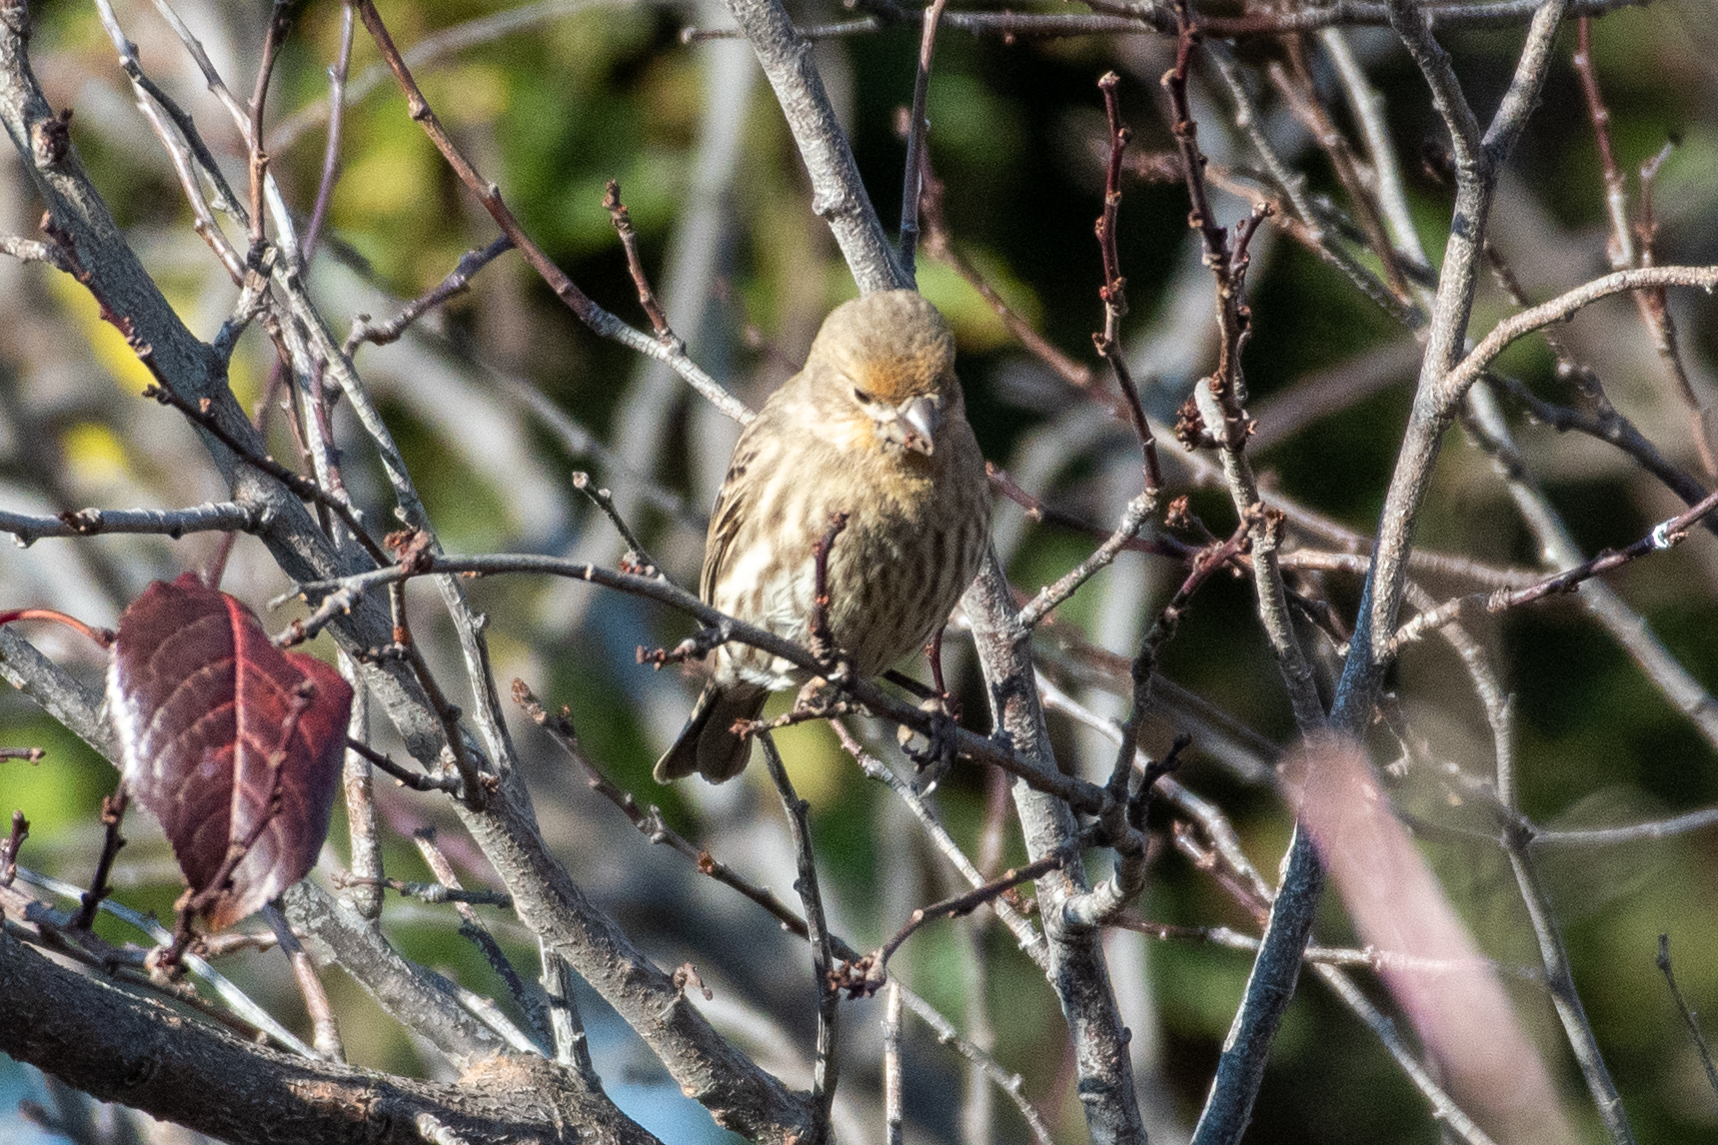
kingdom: Animalia
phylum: Chordata
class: Aves
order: Passeriformes
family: Fringillidae
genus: Haemorhous
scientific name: Haemorhous mexicanus
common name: House finch
